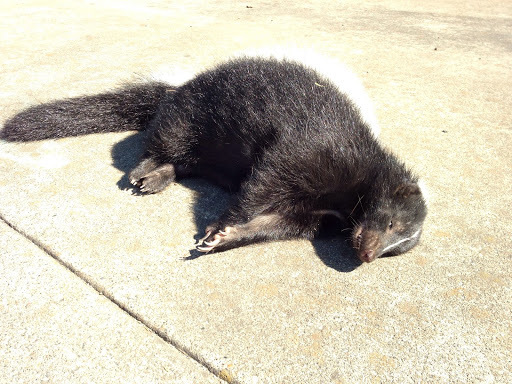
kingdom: Animalia
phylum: Chordata
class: Mammalia
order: Carnivora
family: Mephitidae
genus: Mephitis
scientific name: Mephitis mephitis
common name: Striped skunk
